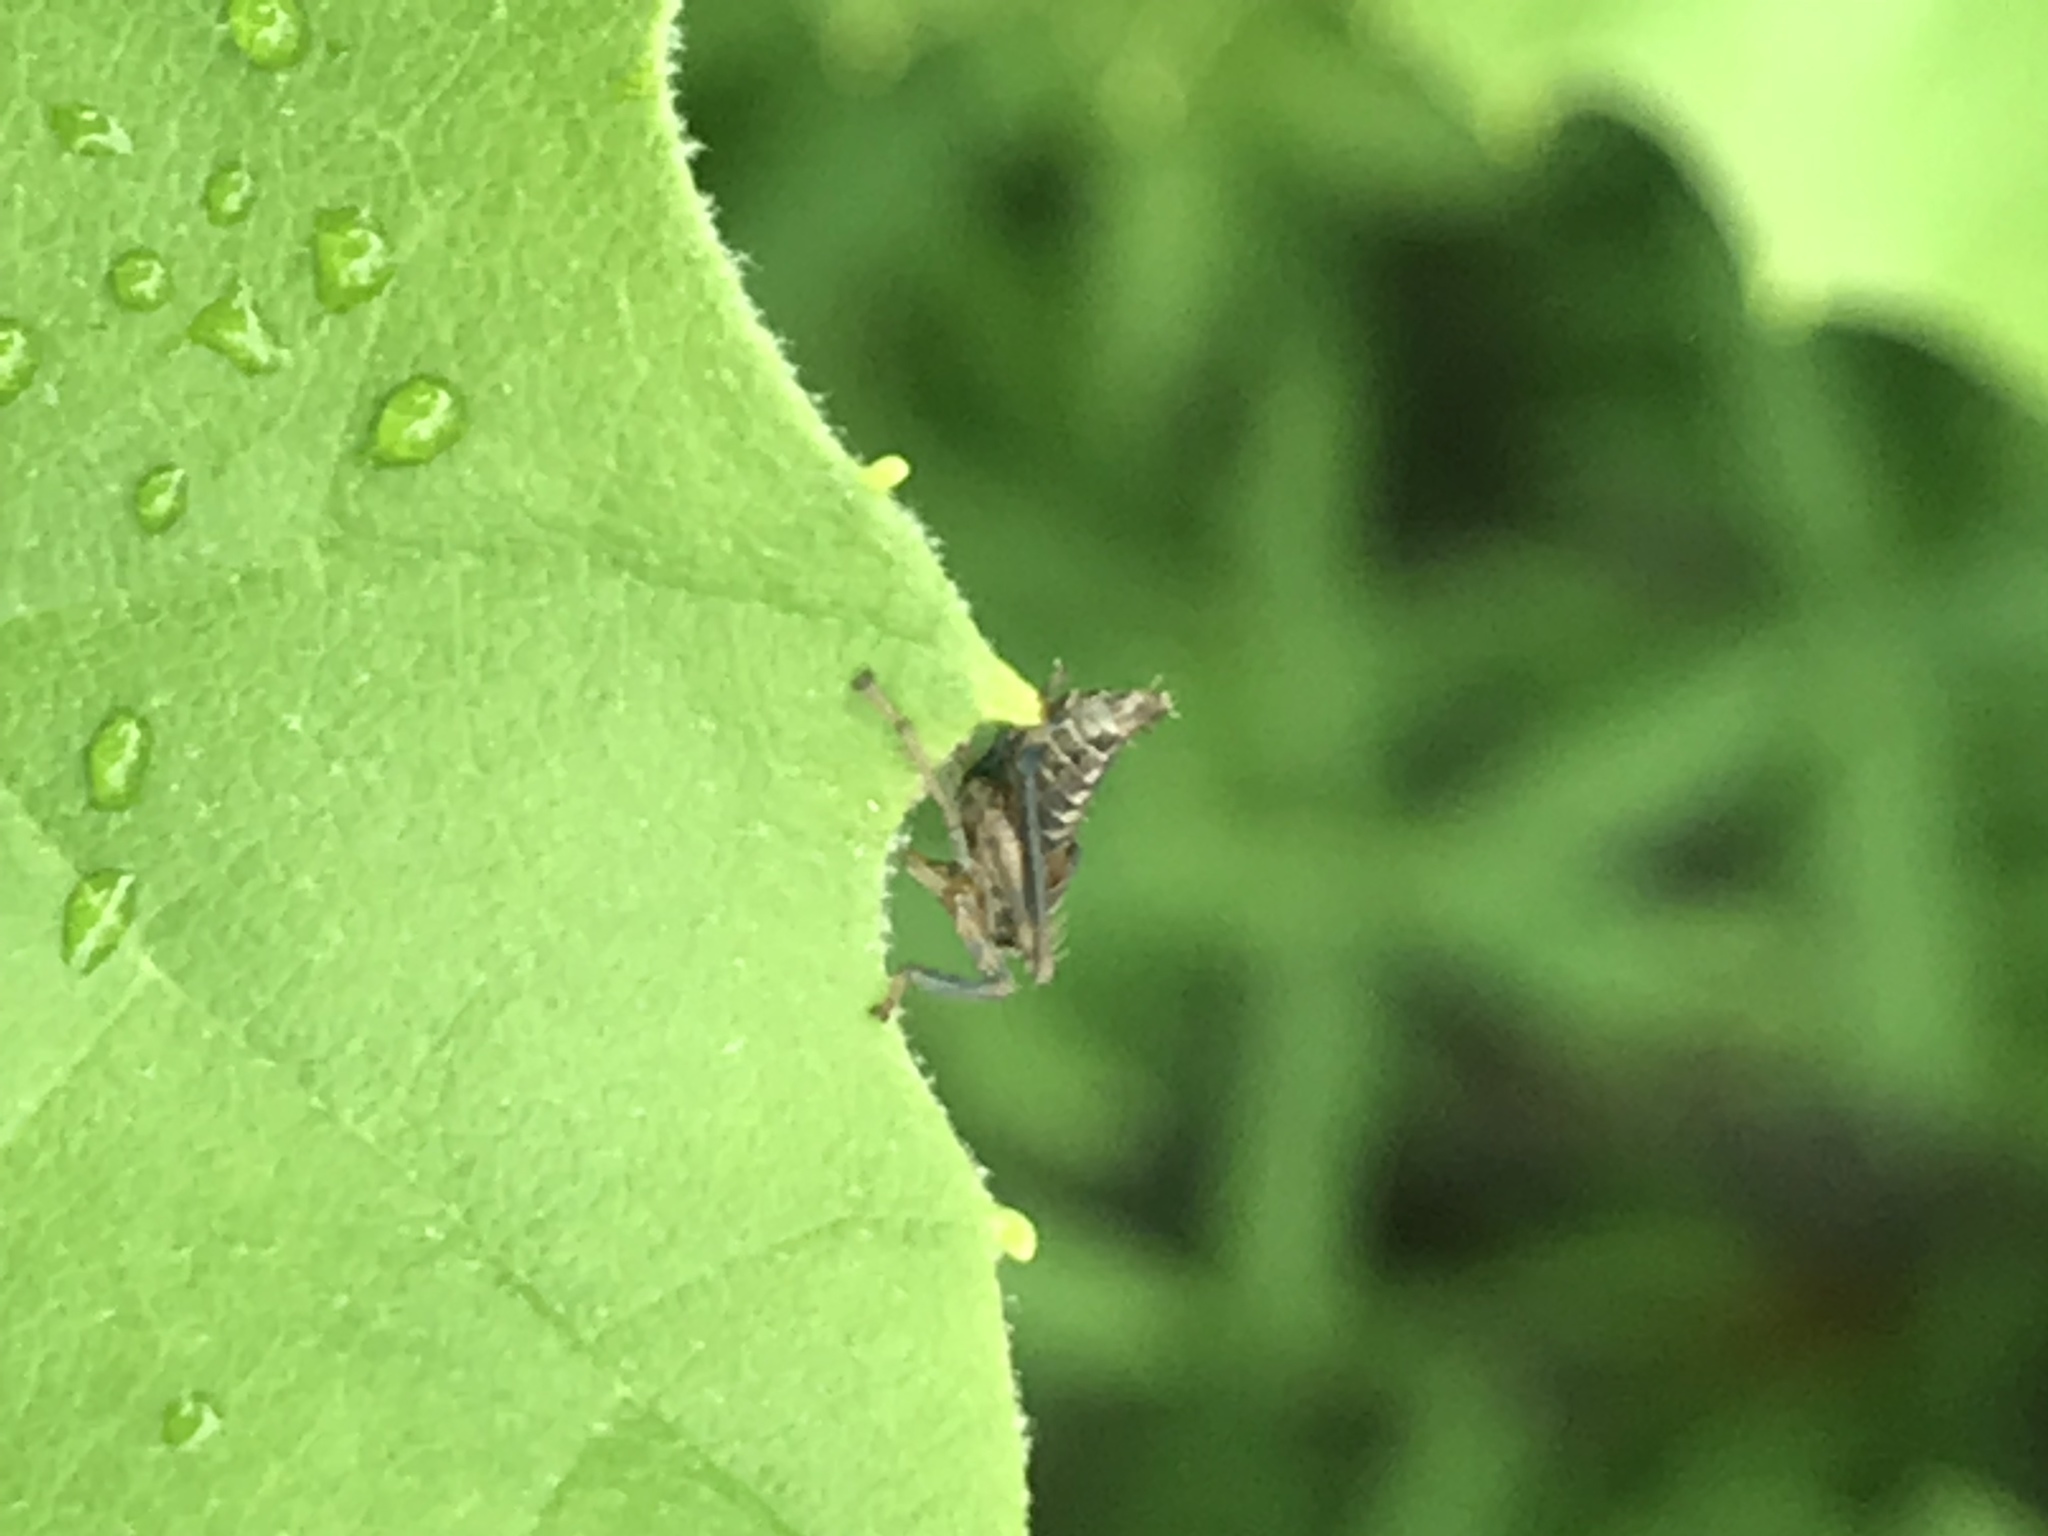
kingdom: Animalia
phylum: Arthropoda
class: Insecta
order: Hemiptera
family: Cicadellidae
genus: Jikradia
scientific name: Jikradia olitoria
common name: Coppery leafhopper
